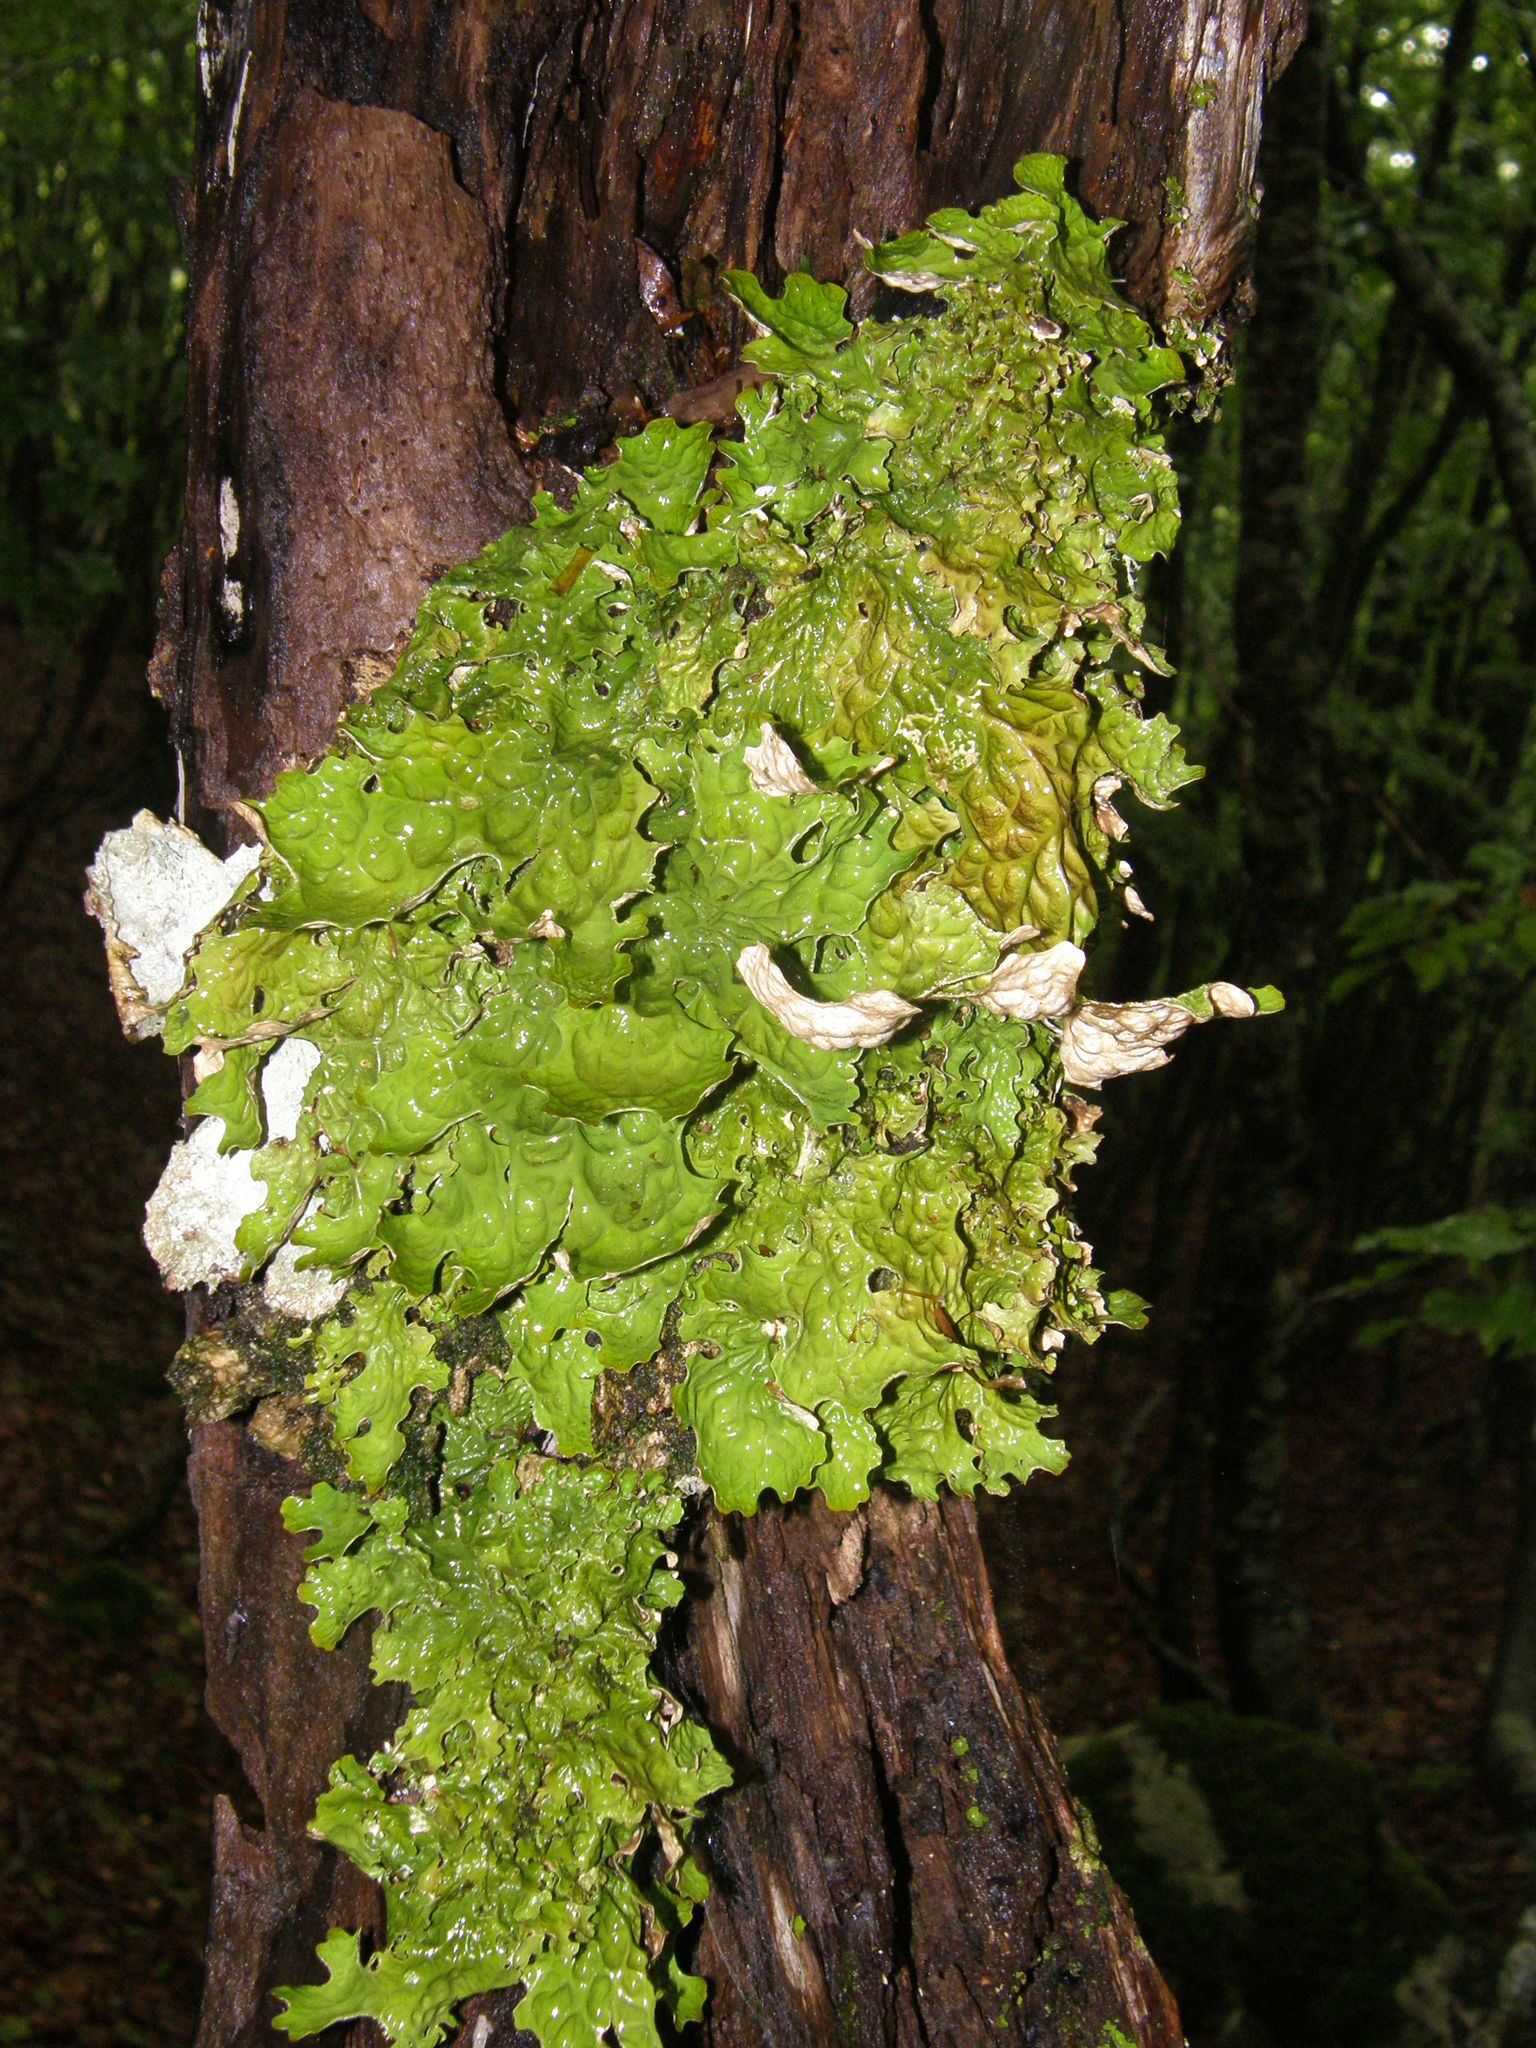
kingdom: Fungi
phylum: Ascomycota
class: Lecanoromycetes
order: Peltigerales
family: Lobariaceae
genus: Lobaria
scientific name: Lobaria pulmonaria
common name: Lungwort
